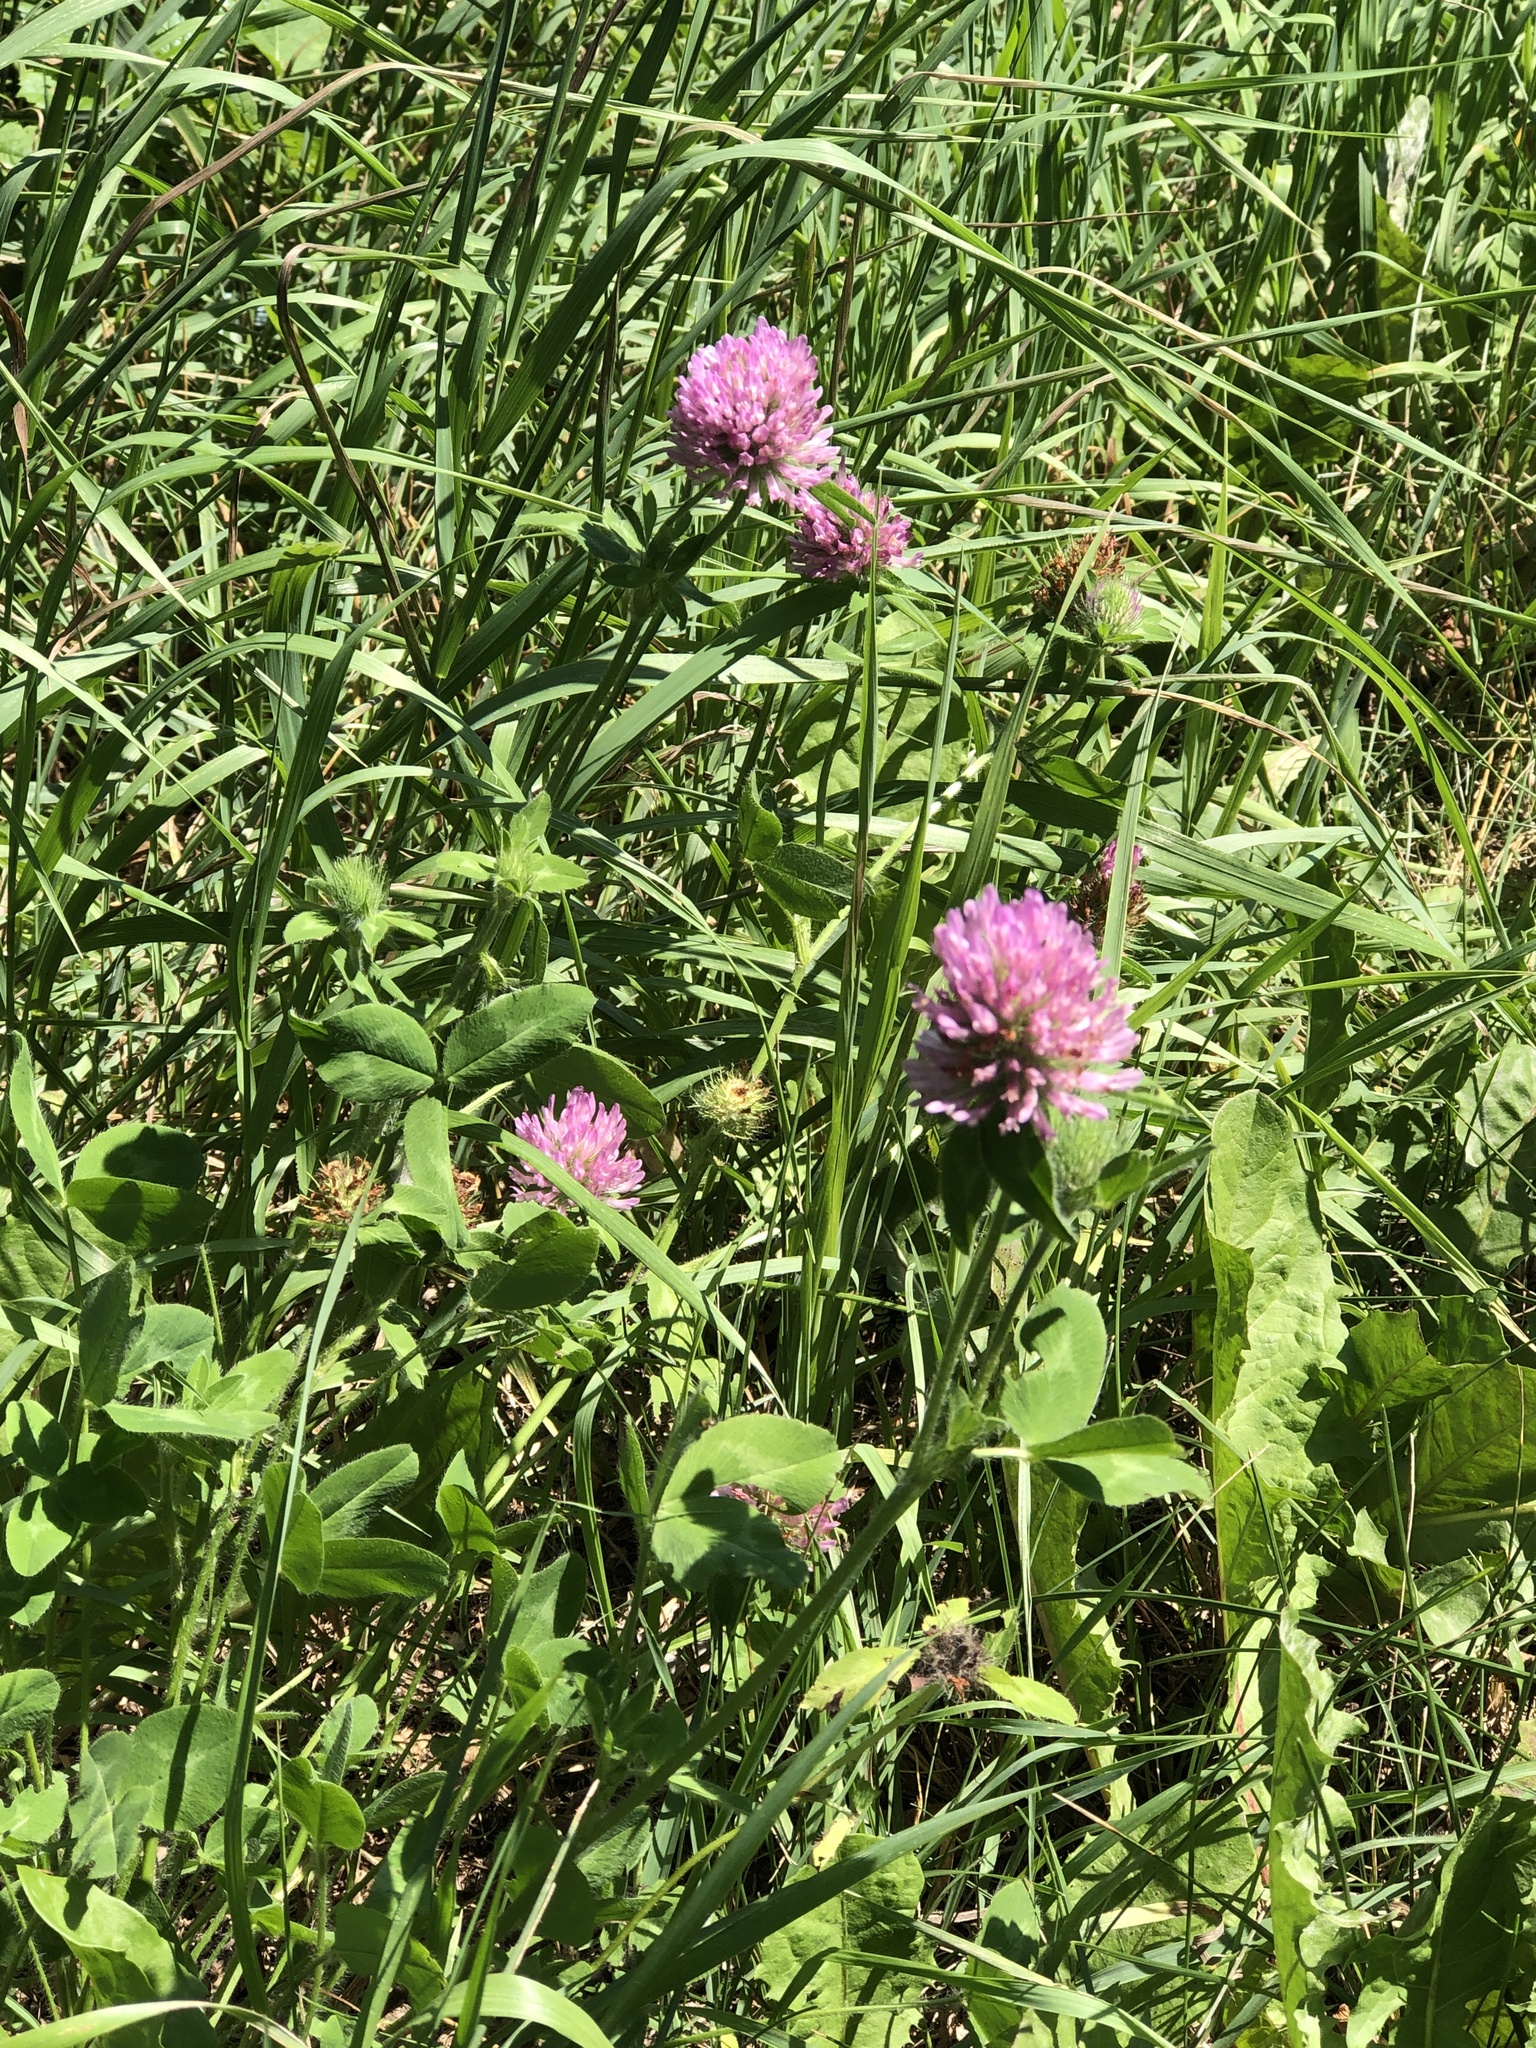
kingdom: Plantae
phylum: Tracheophyta
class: Magnoliopsida
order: Fabales
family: Fabaceae
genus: Trifolium
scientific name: Trifolium pratense
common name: Red clover
